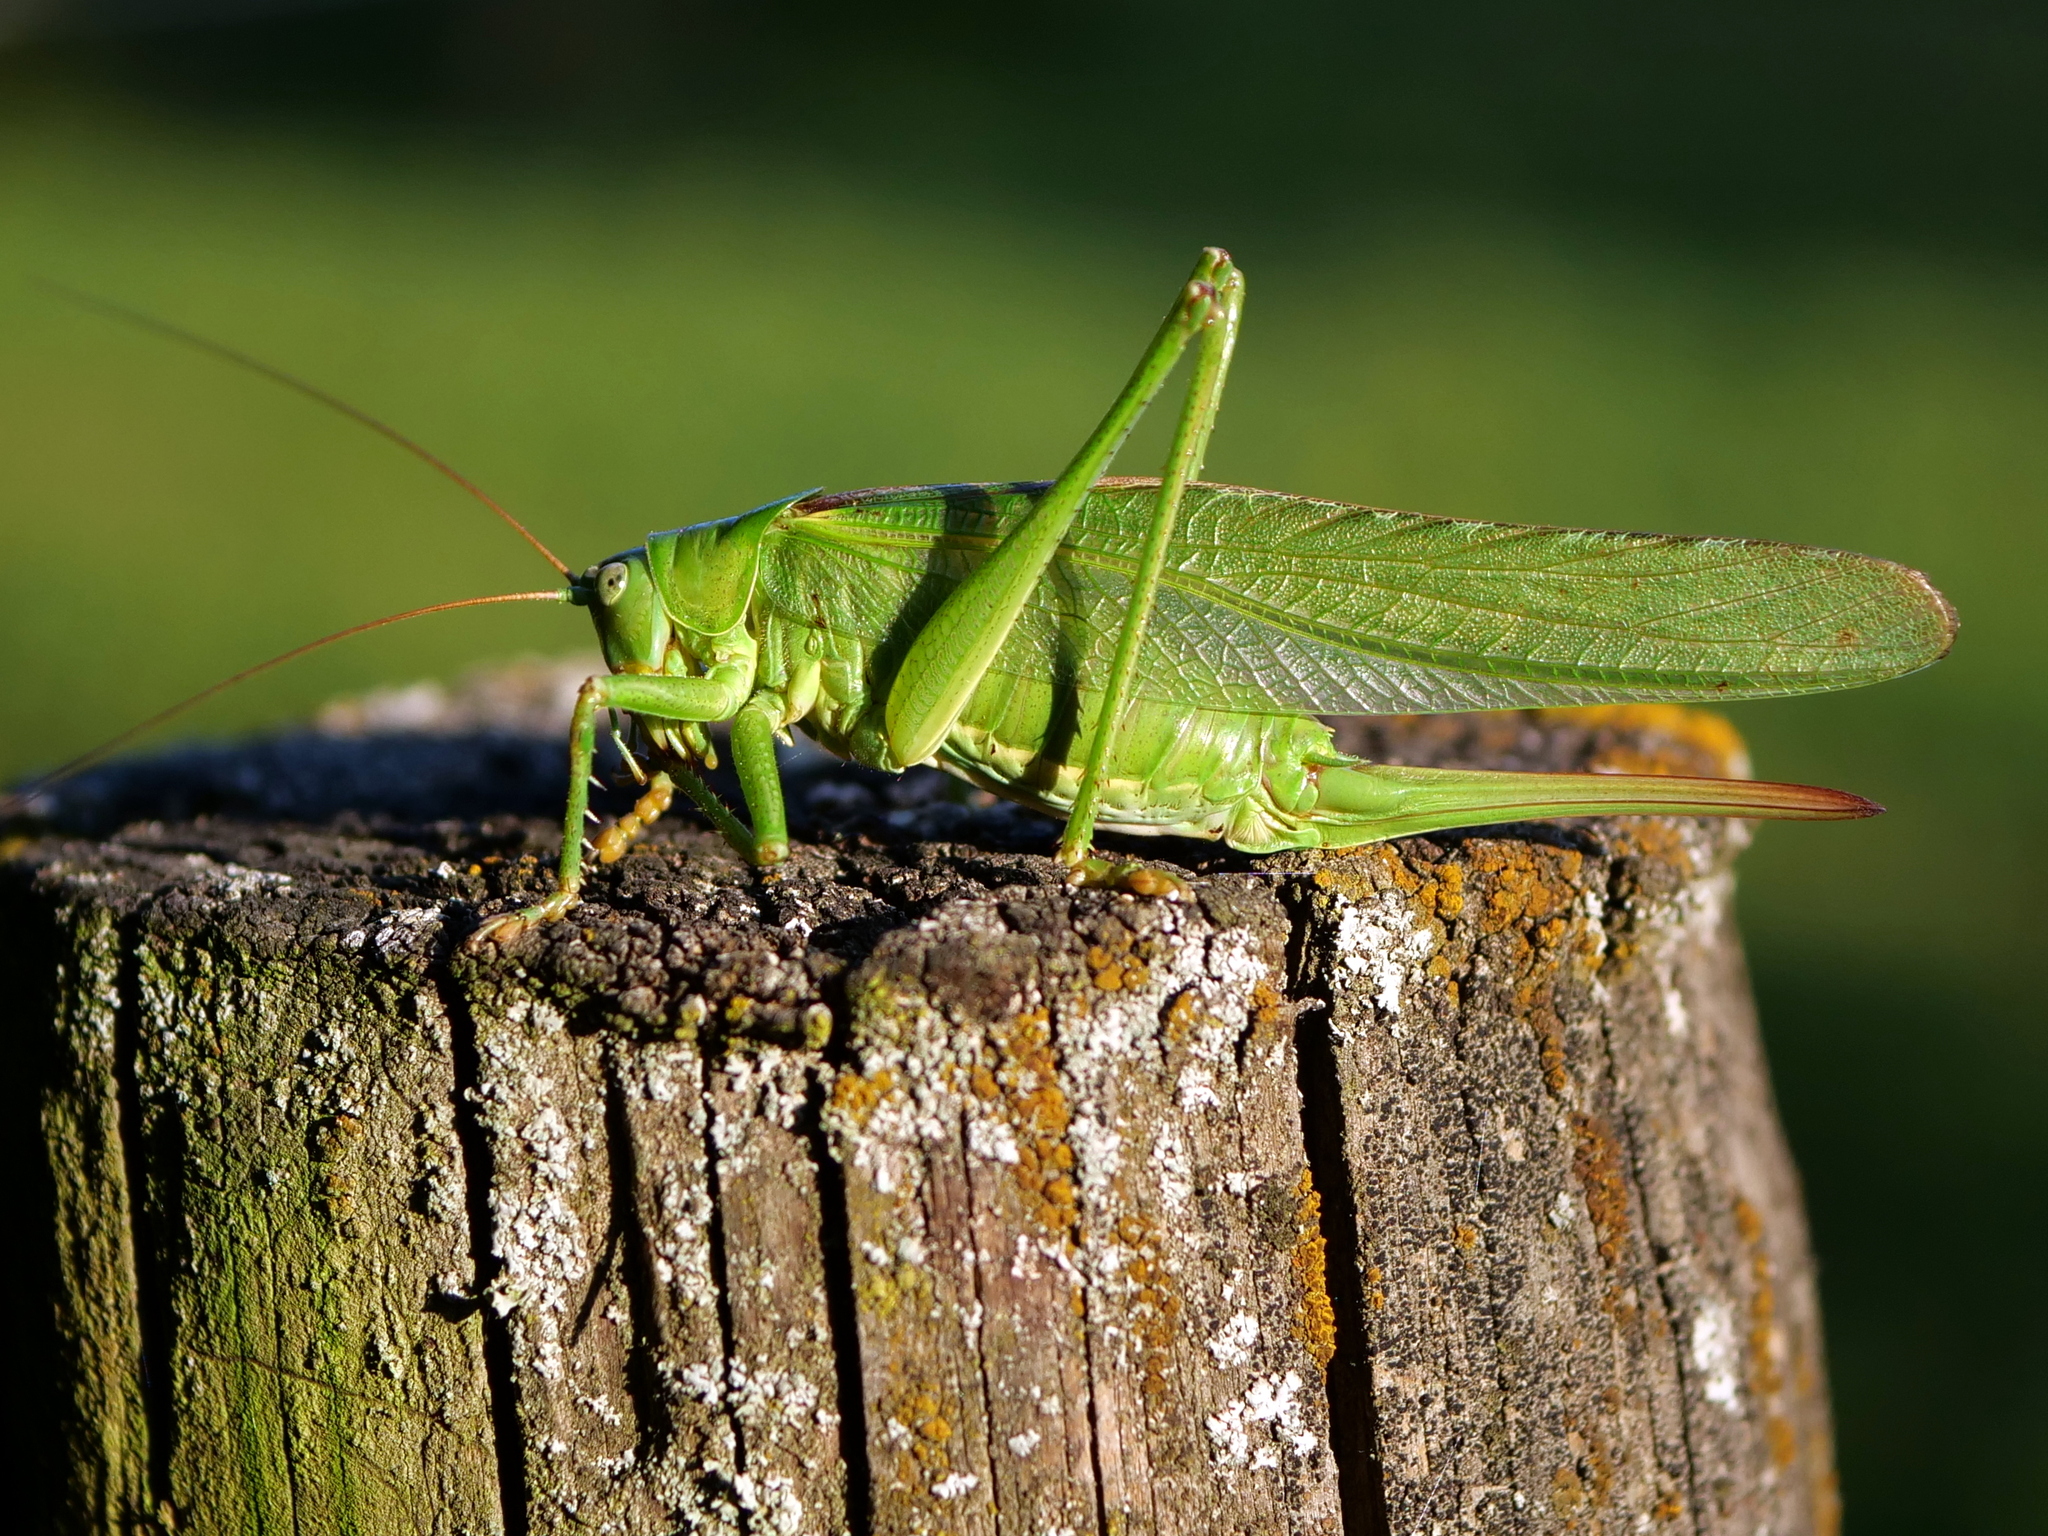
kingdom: Animalia
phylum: Arthropoda
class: Insecta
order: Orthoptera
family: Tettigoniidae
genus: Tettigonia
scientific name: Tettigonia viridissima
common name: Great green bush-cricket
